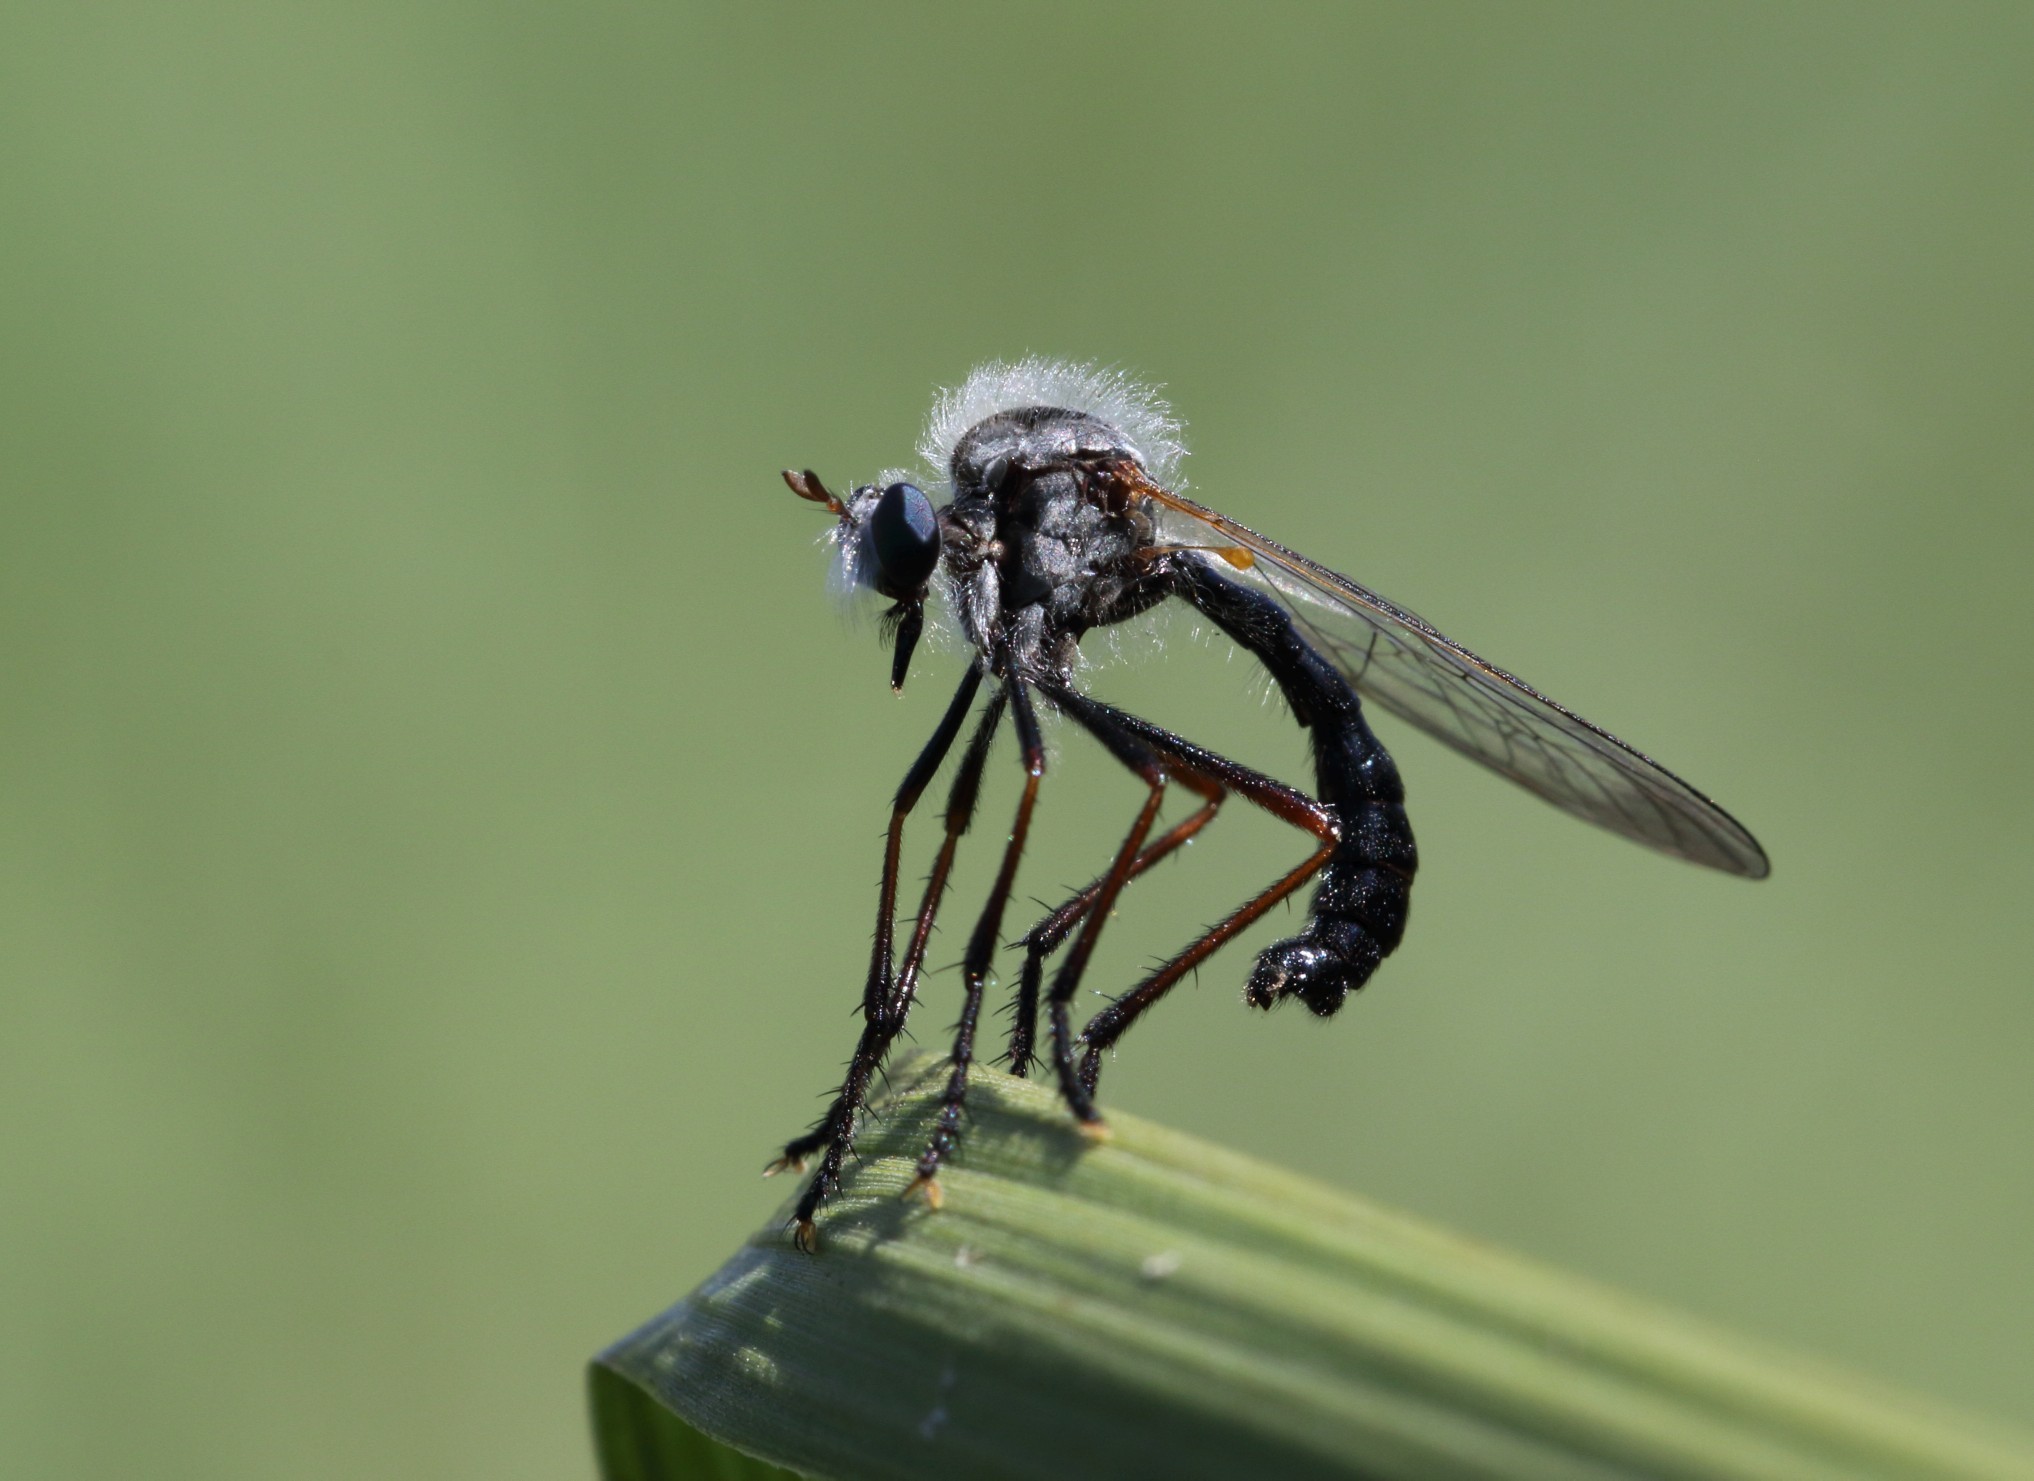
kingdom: Animalia
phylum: Arthropoda
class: Insecta
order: Diptera
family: Asilidae
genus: Pegesimallus
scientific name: Pegesimallus bicolor
